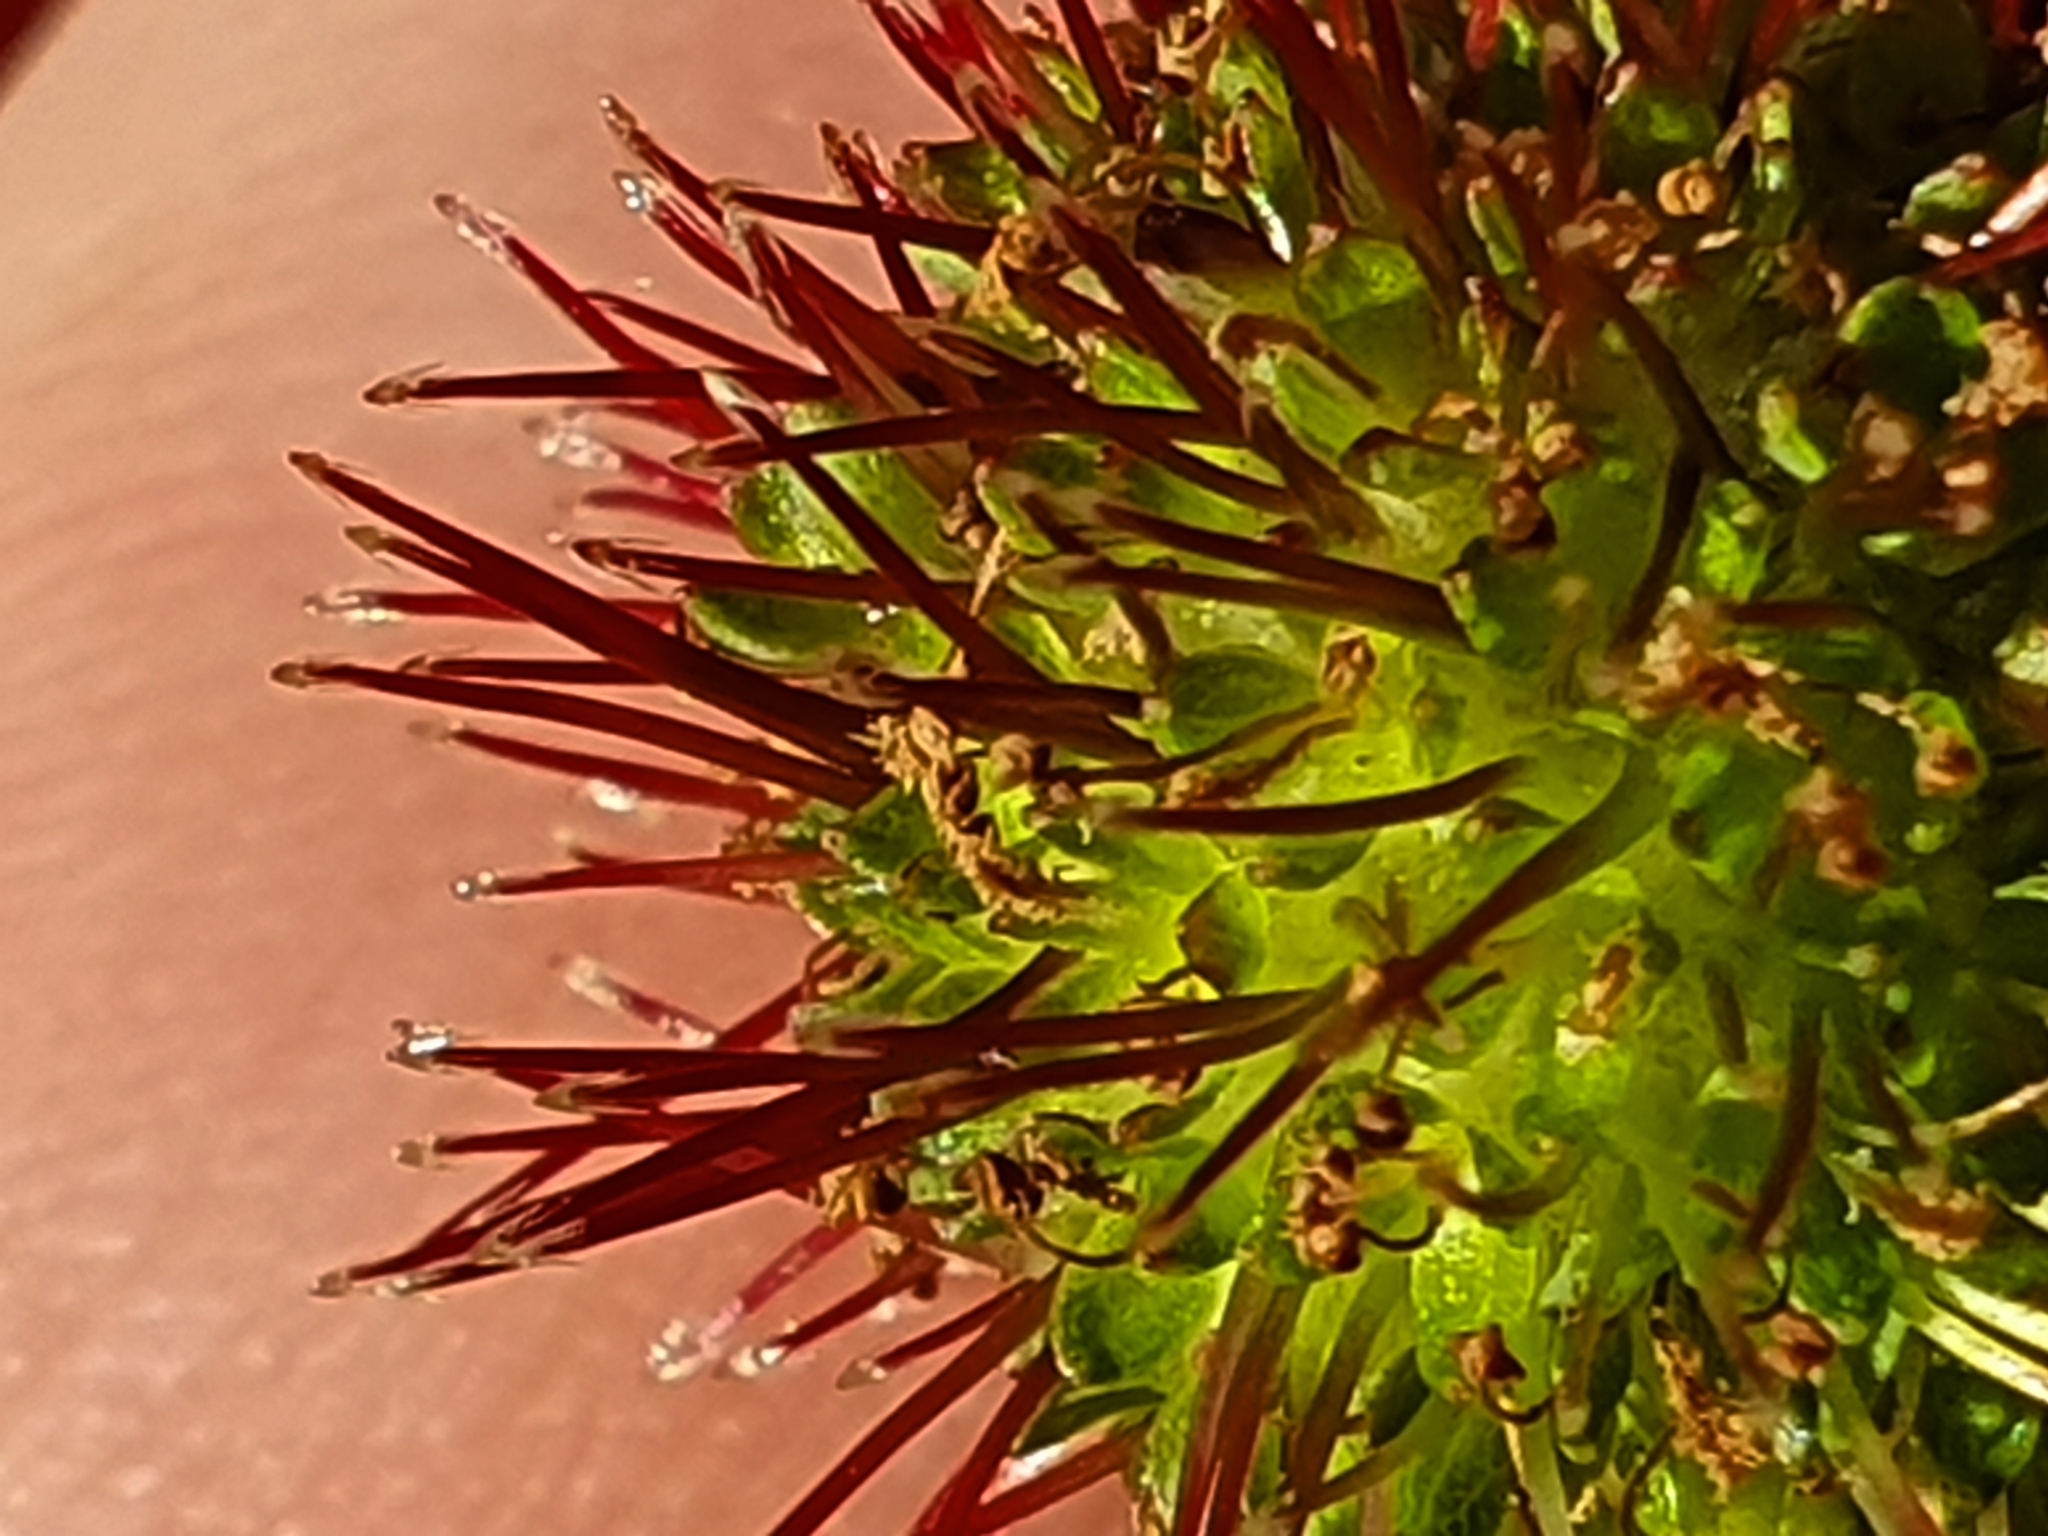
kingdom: Plantae
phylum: Tracheophyta
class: Magnoliopsida
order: Rosales
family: Rosaceae
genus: Acaena
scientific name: Acaena novae-zelandiae
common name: Pirri-pirri-bur
